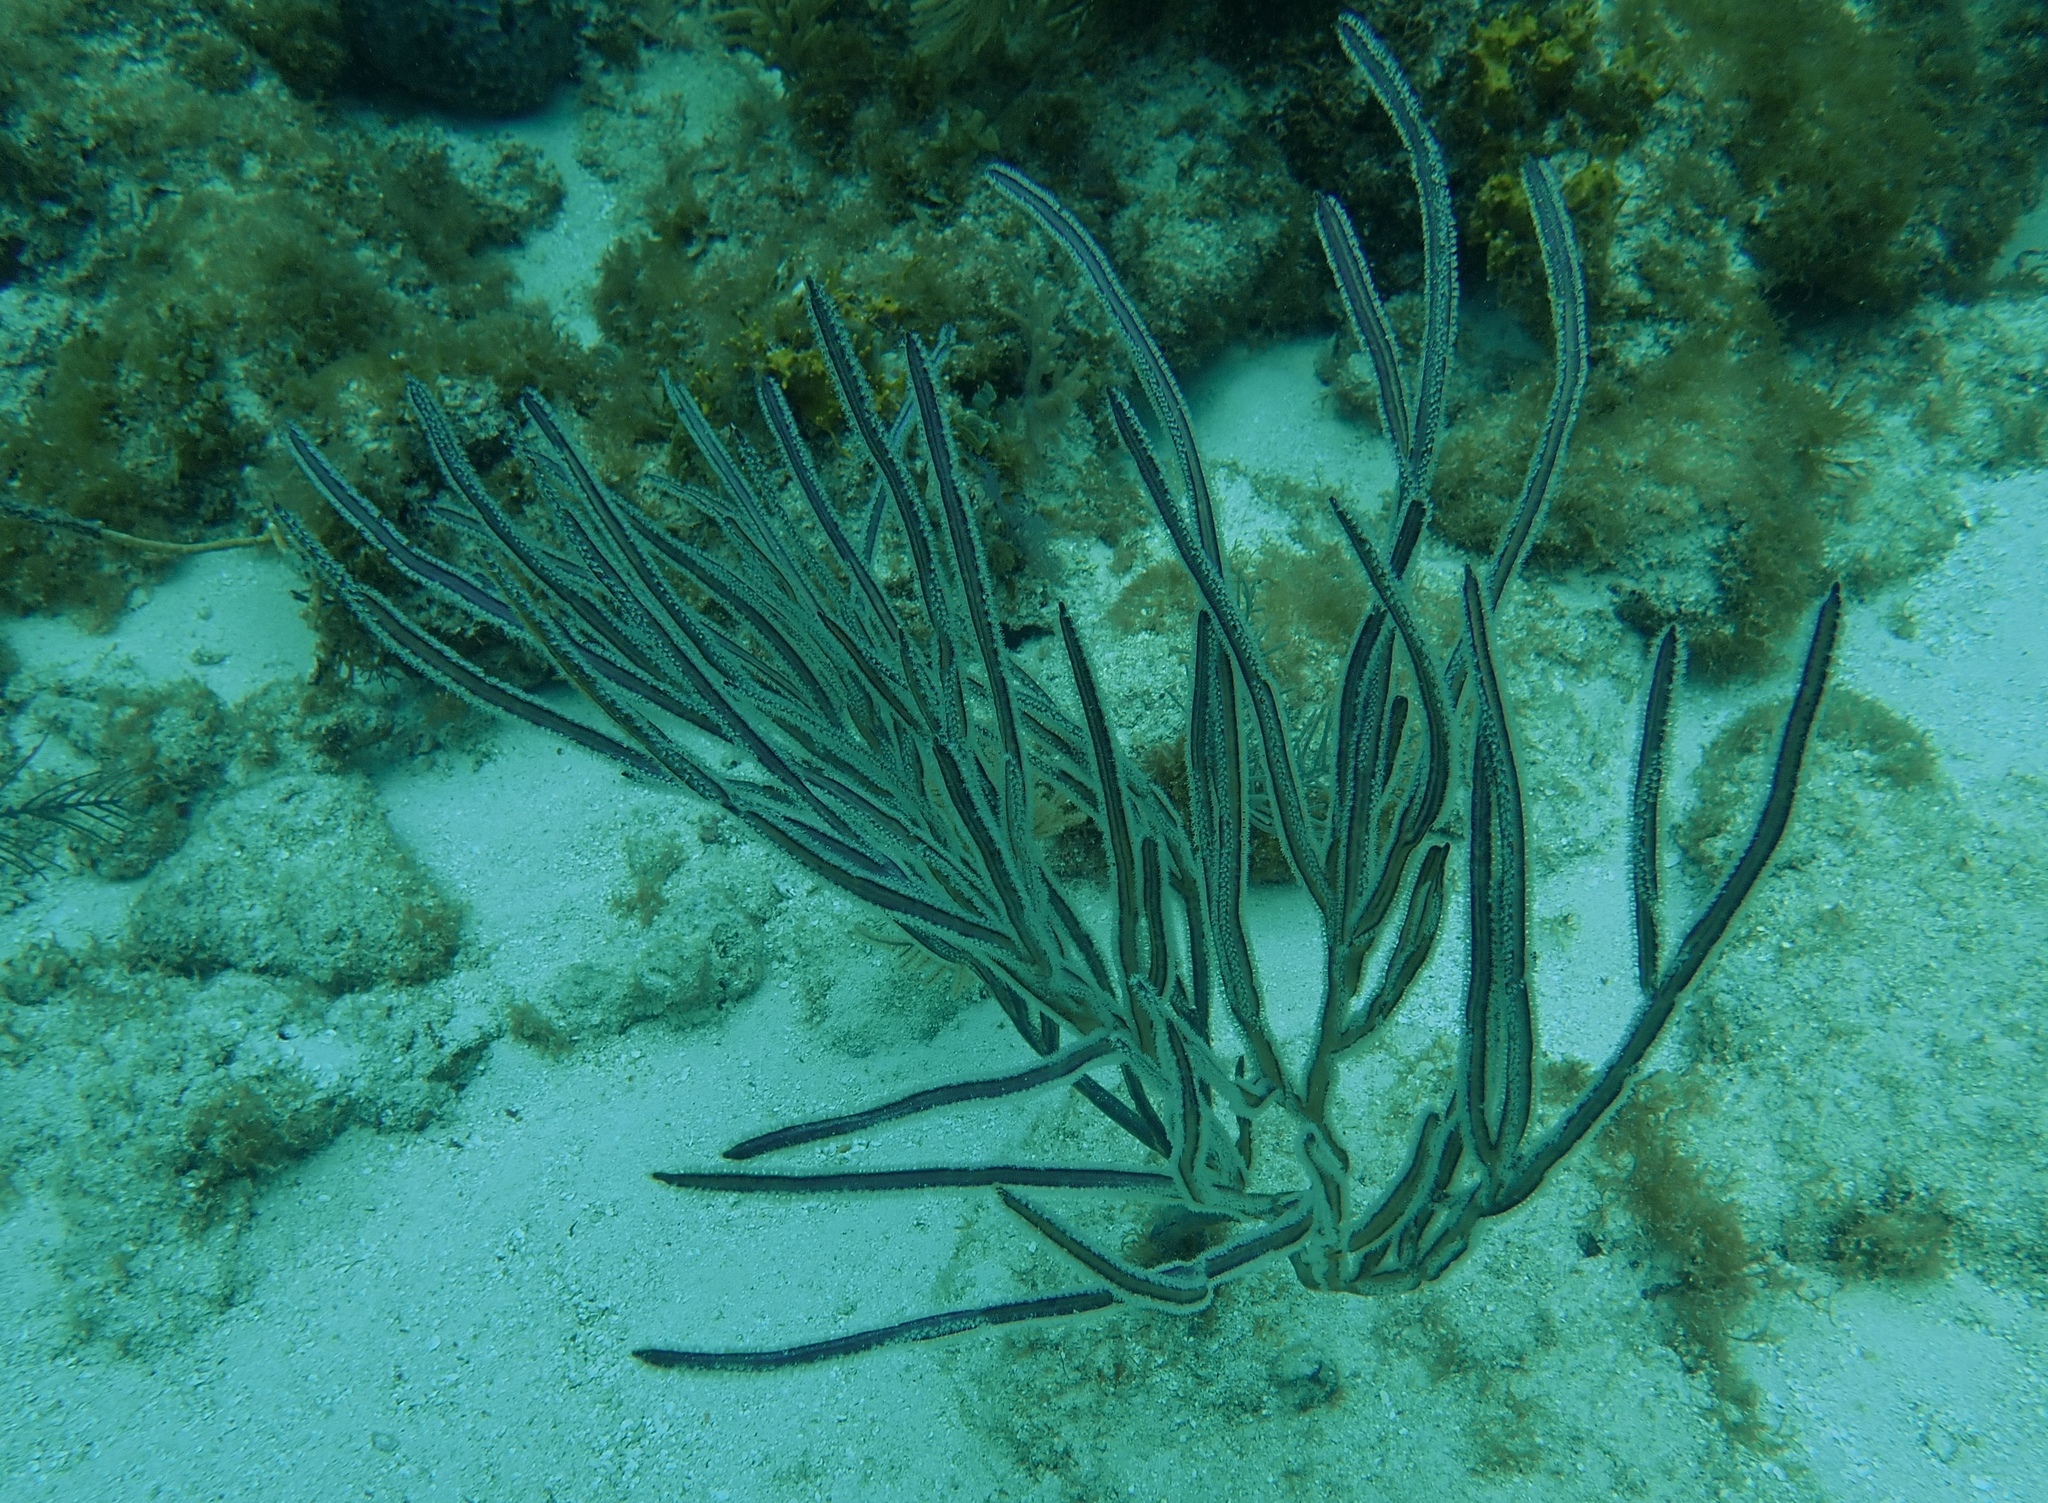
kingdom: Animalia
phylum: Cnidaria
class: Anthozoa
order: Malacalcyonacea
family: Pterogorgiidae
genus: Pterogorgia
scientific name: Pterogorgia guadalupensis
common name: Grooved-blade sea whip
